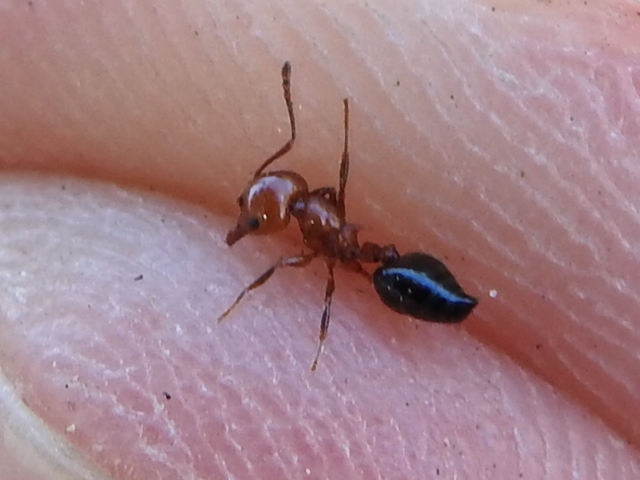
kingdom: Animalia
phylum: Arthropoda
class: Insecta
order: Hymenoptera
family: Formicidae
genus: Crematogaster
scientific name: Crematogaster laeviuscula
